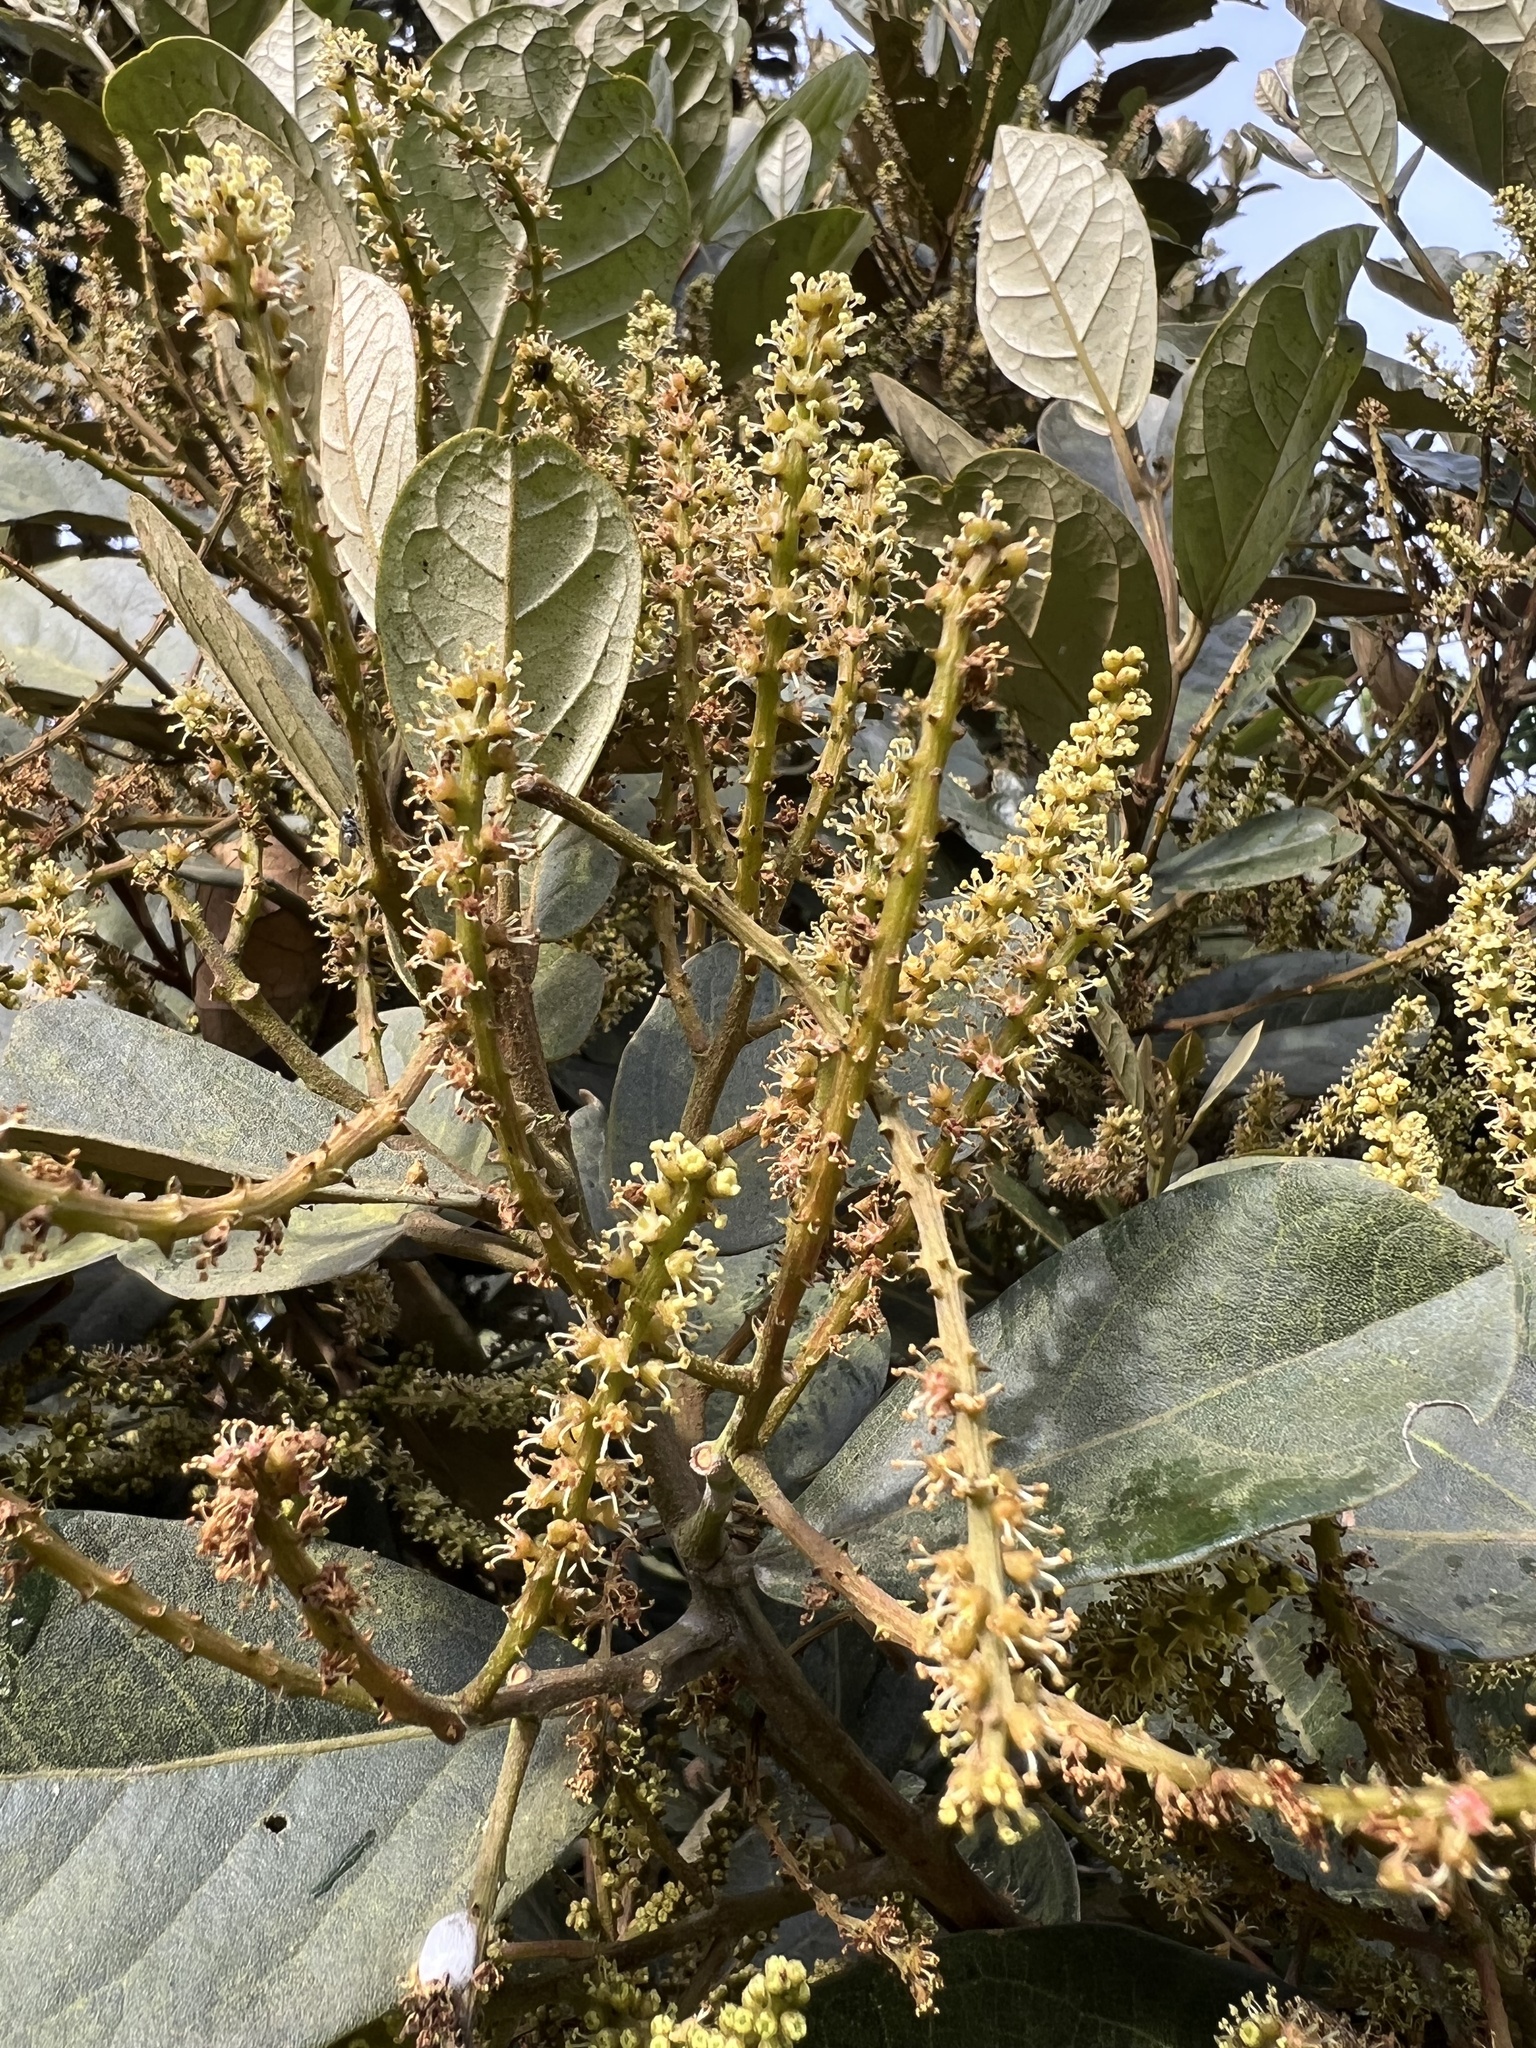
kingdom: Plantae
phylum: Tracheophyta
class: Magnoliopsida
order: Malpighiales
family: Phyllanthaceae
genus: Hieronyma
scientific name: Hieronyma rufa
